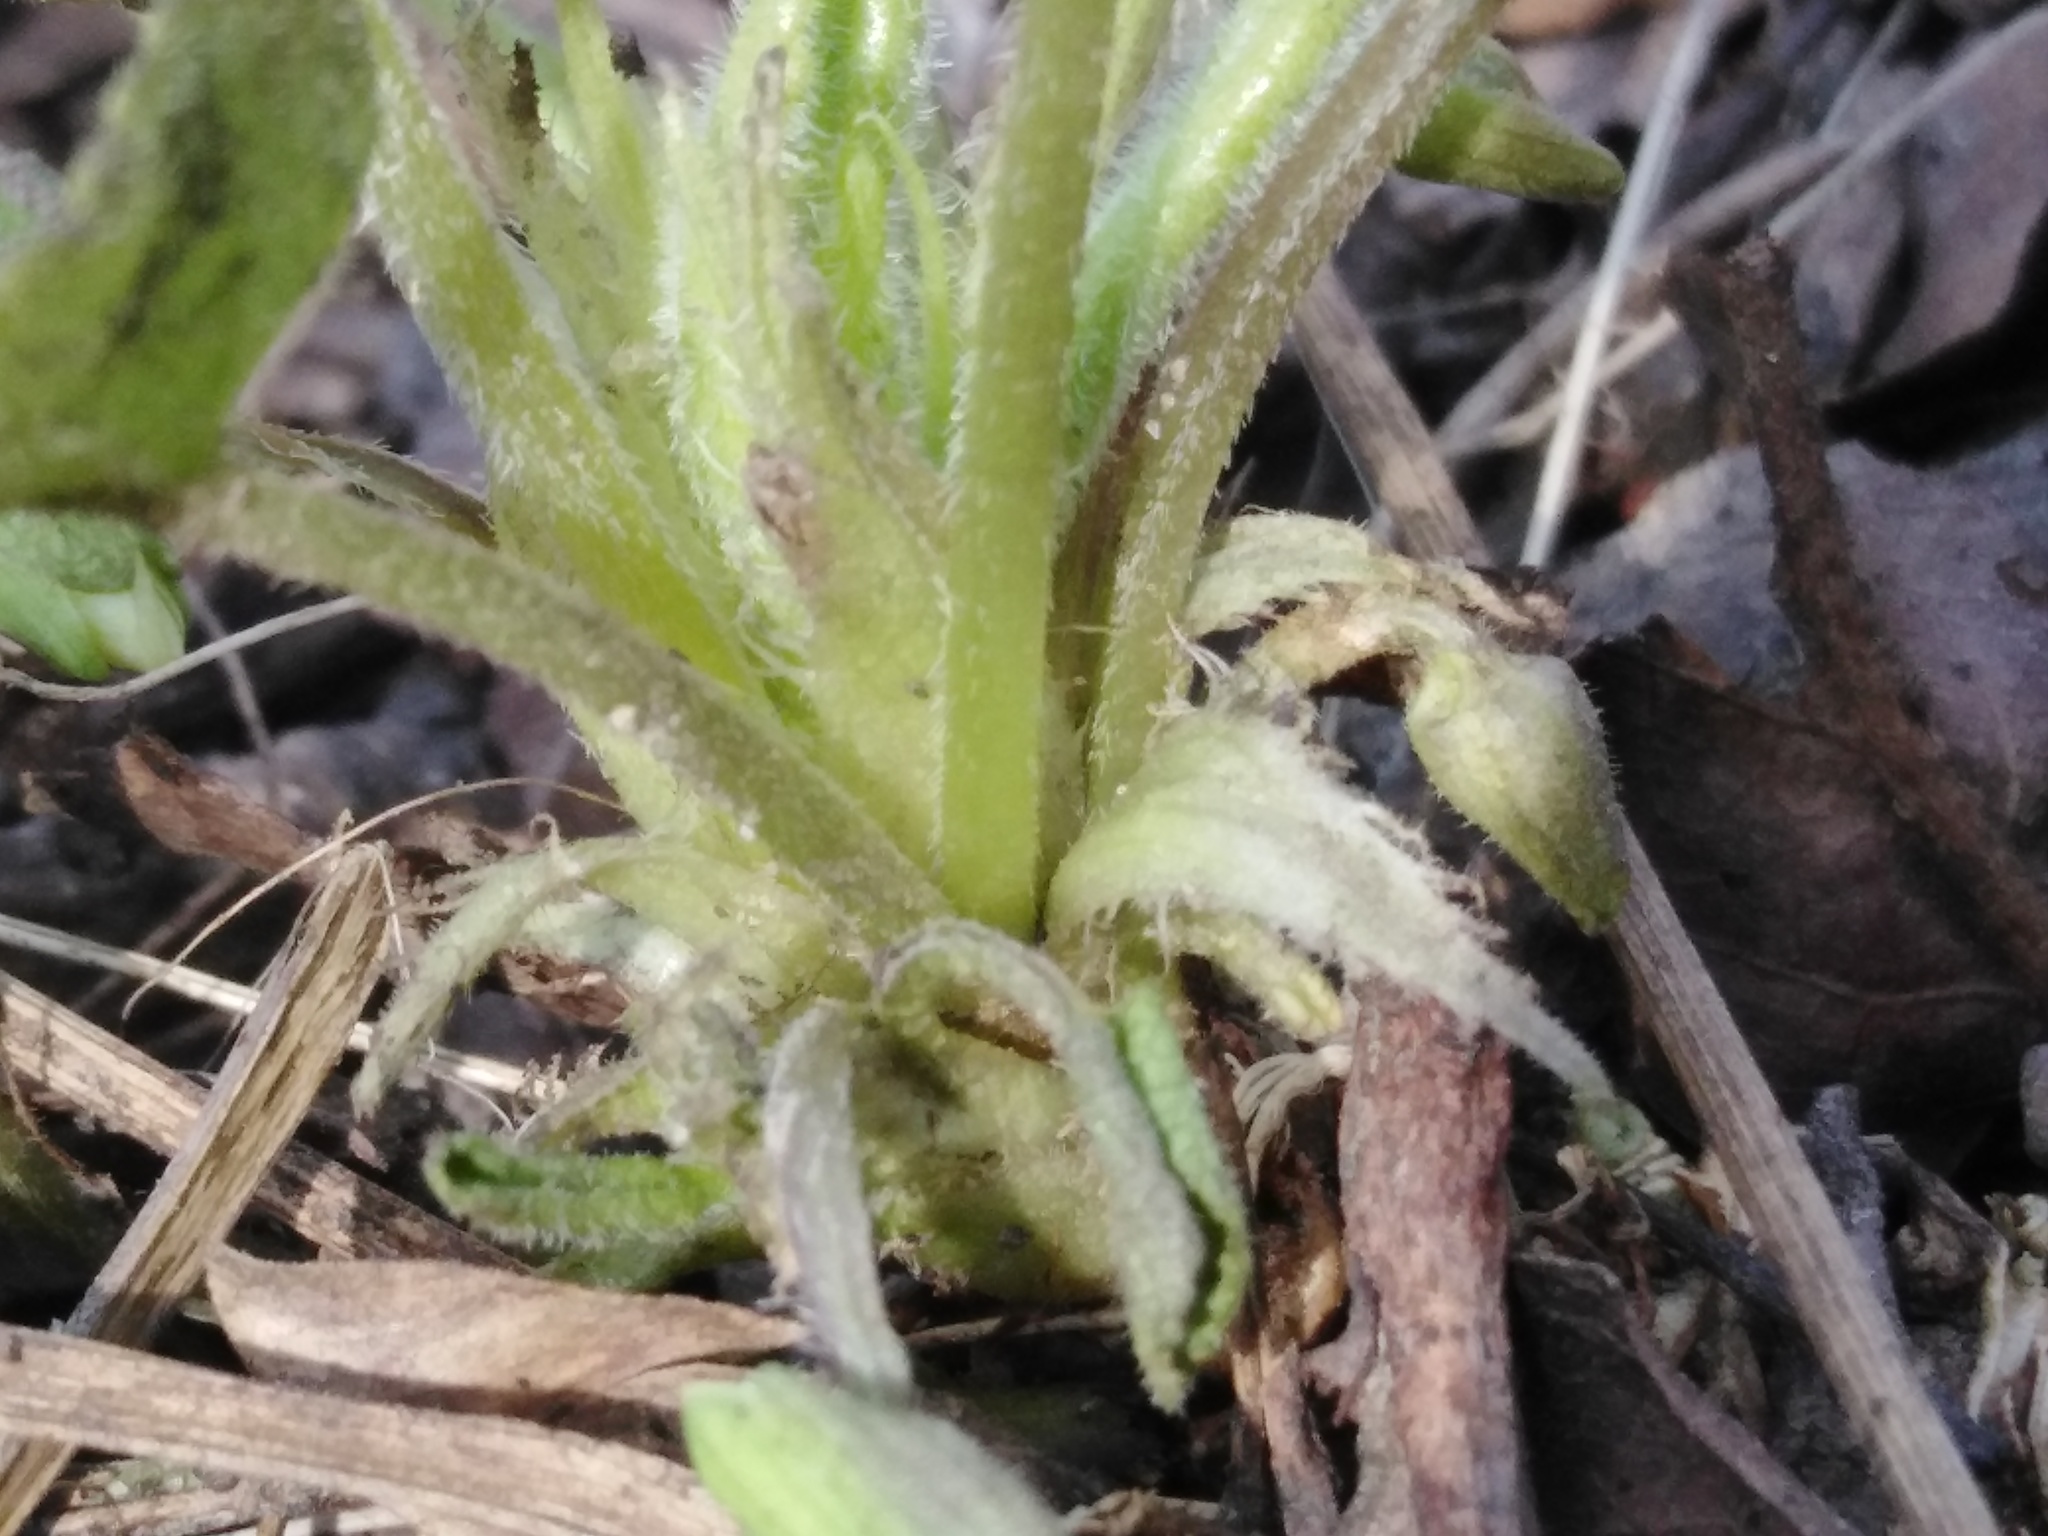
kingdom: Plantae
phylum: Tracheophyta
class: Magnoliopsida
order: Malpighiales
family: Violaceae
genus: Viola
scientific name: Viola collina
